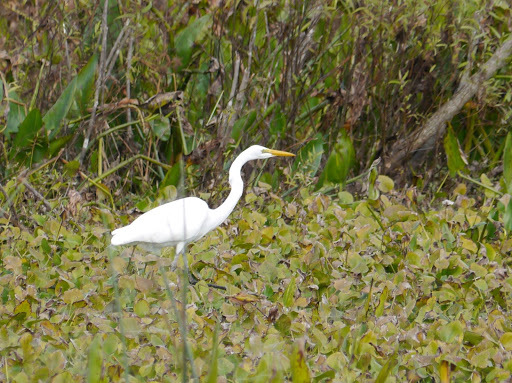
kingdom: Animalia
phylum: Chordata
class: Aves
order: Pelecaniformes
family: Ardeidae
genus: Ardea
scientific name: Ardea alba
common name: Great egret
